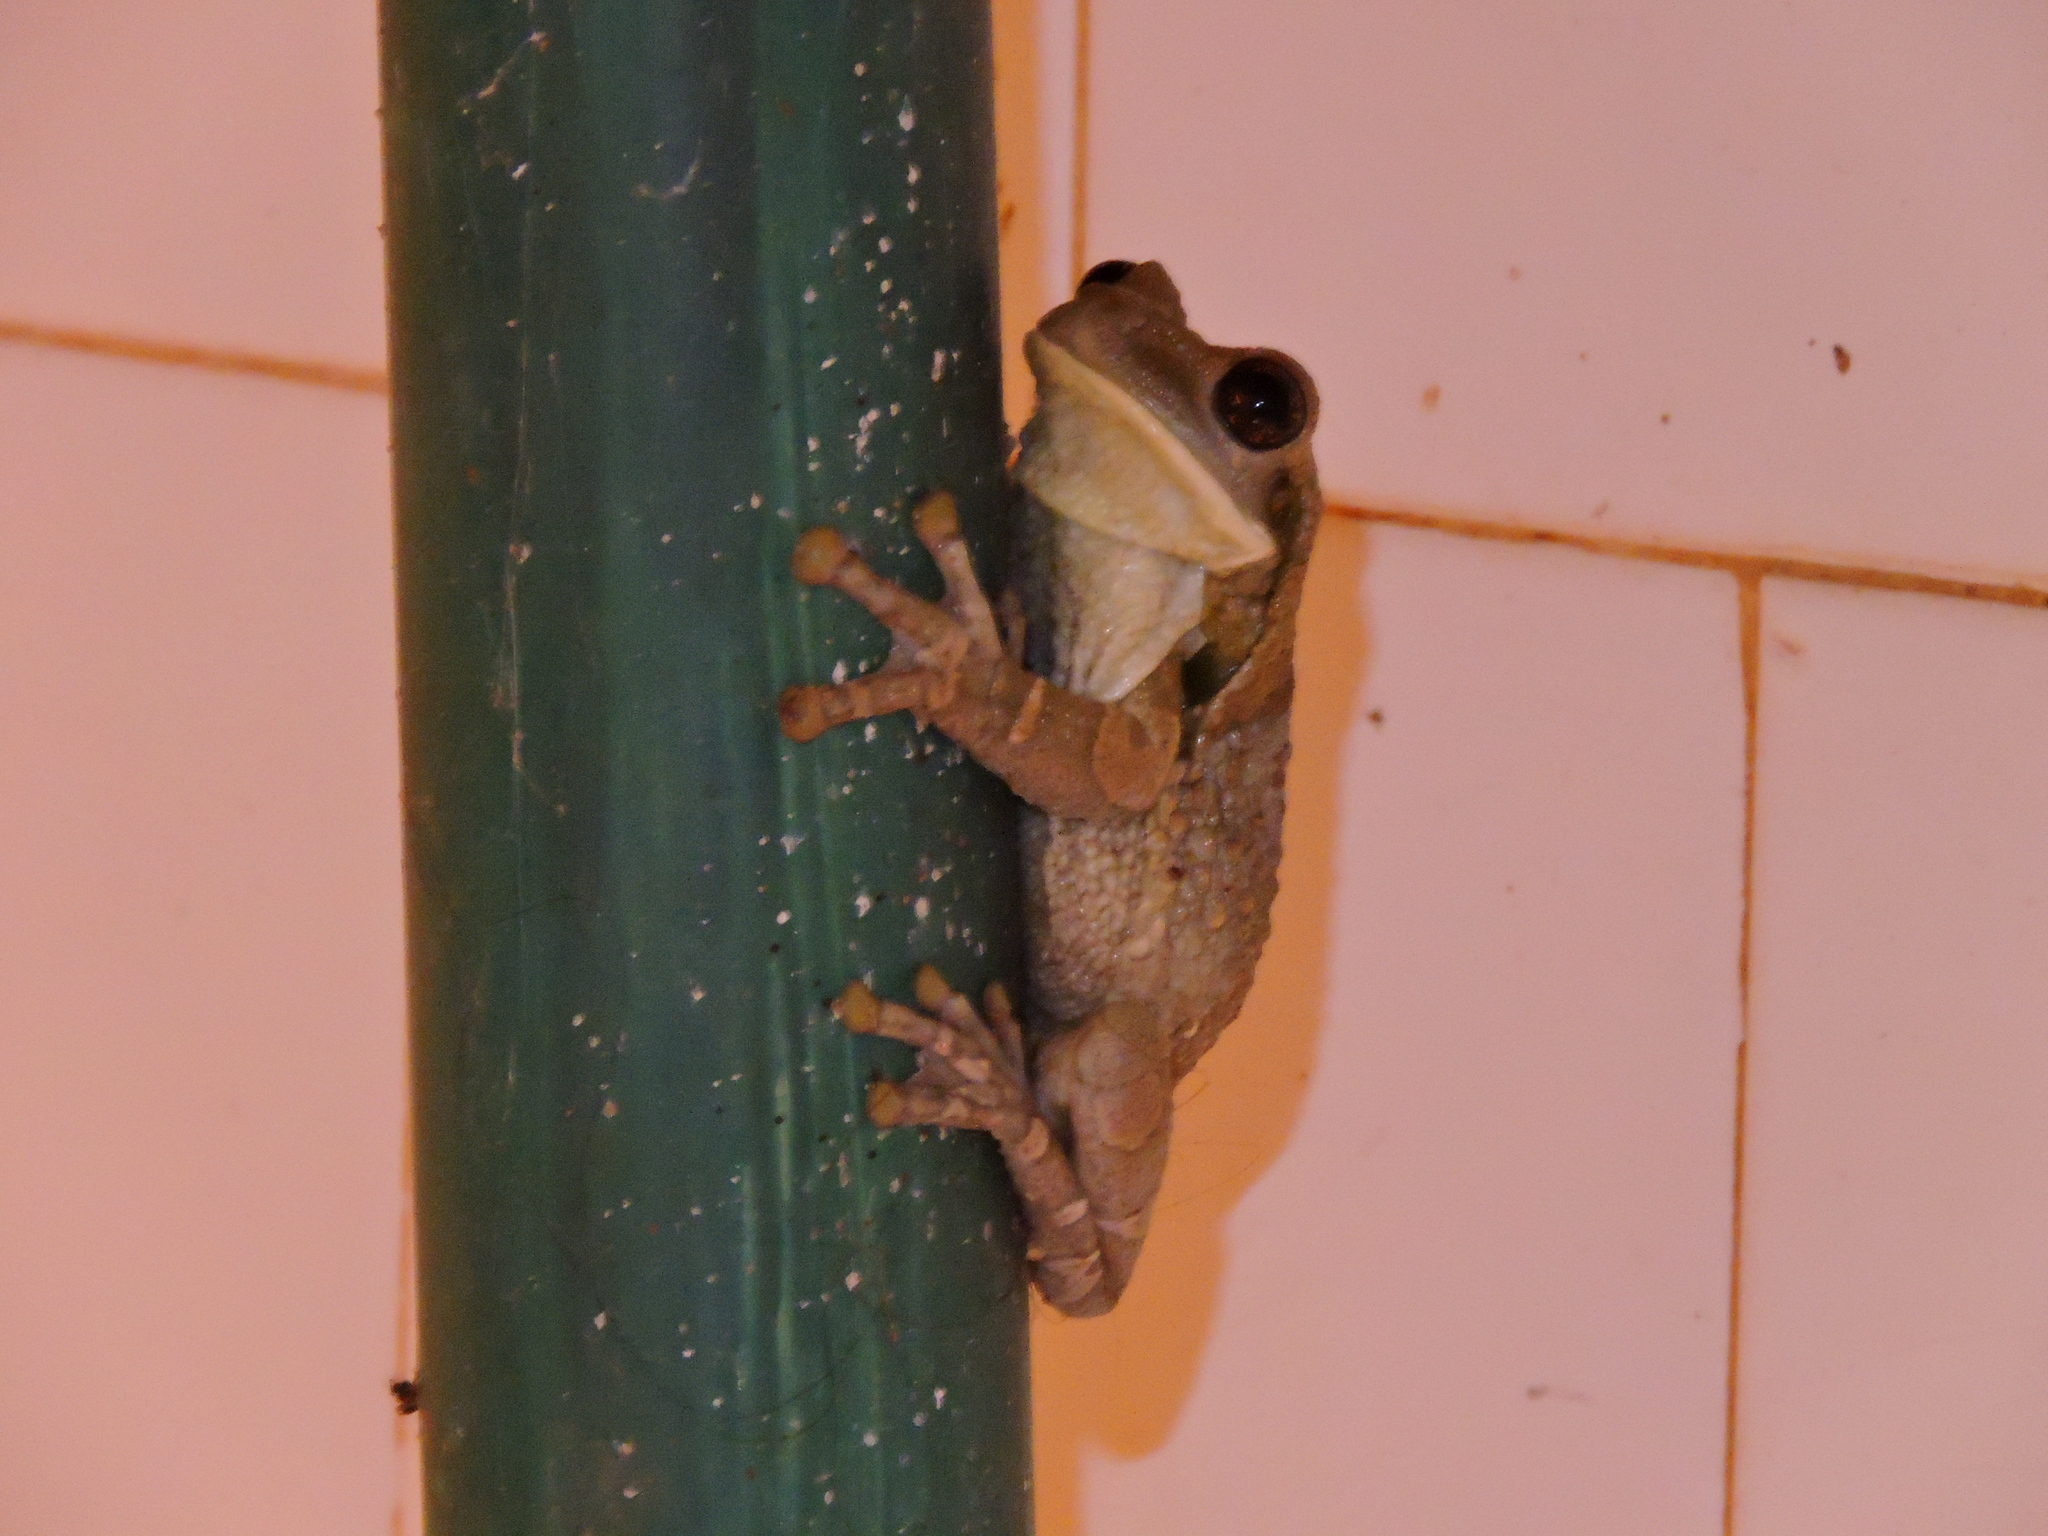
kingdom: Animalia
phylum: Chordata
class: Amphibia
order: Anura
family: Hylidae
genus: Trachycephalus
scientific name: Trachycephalus typhonius
